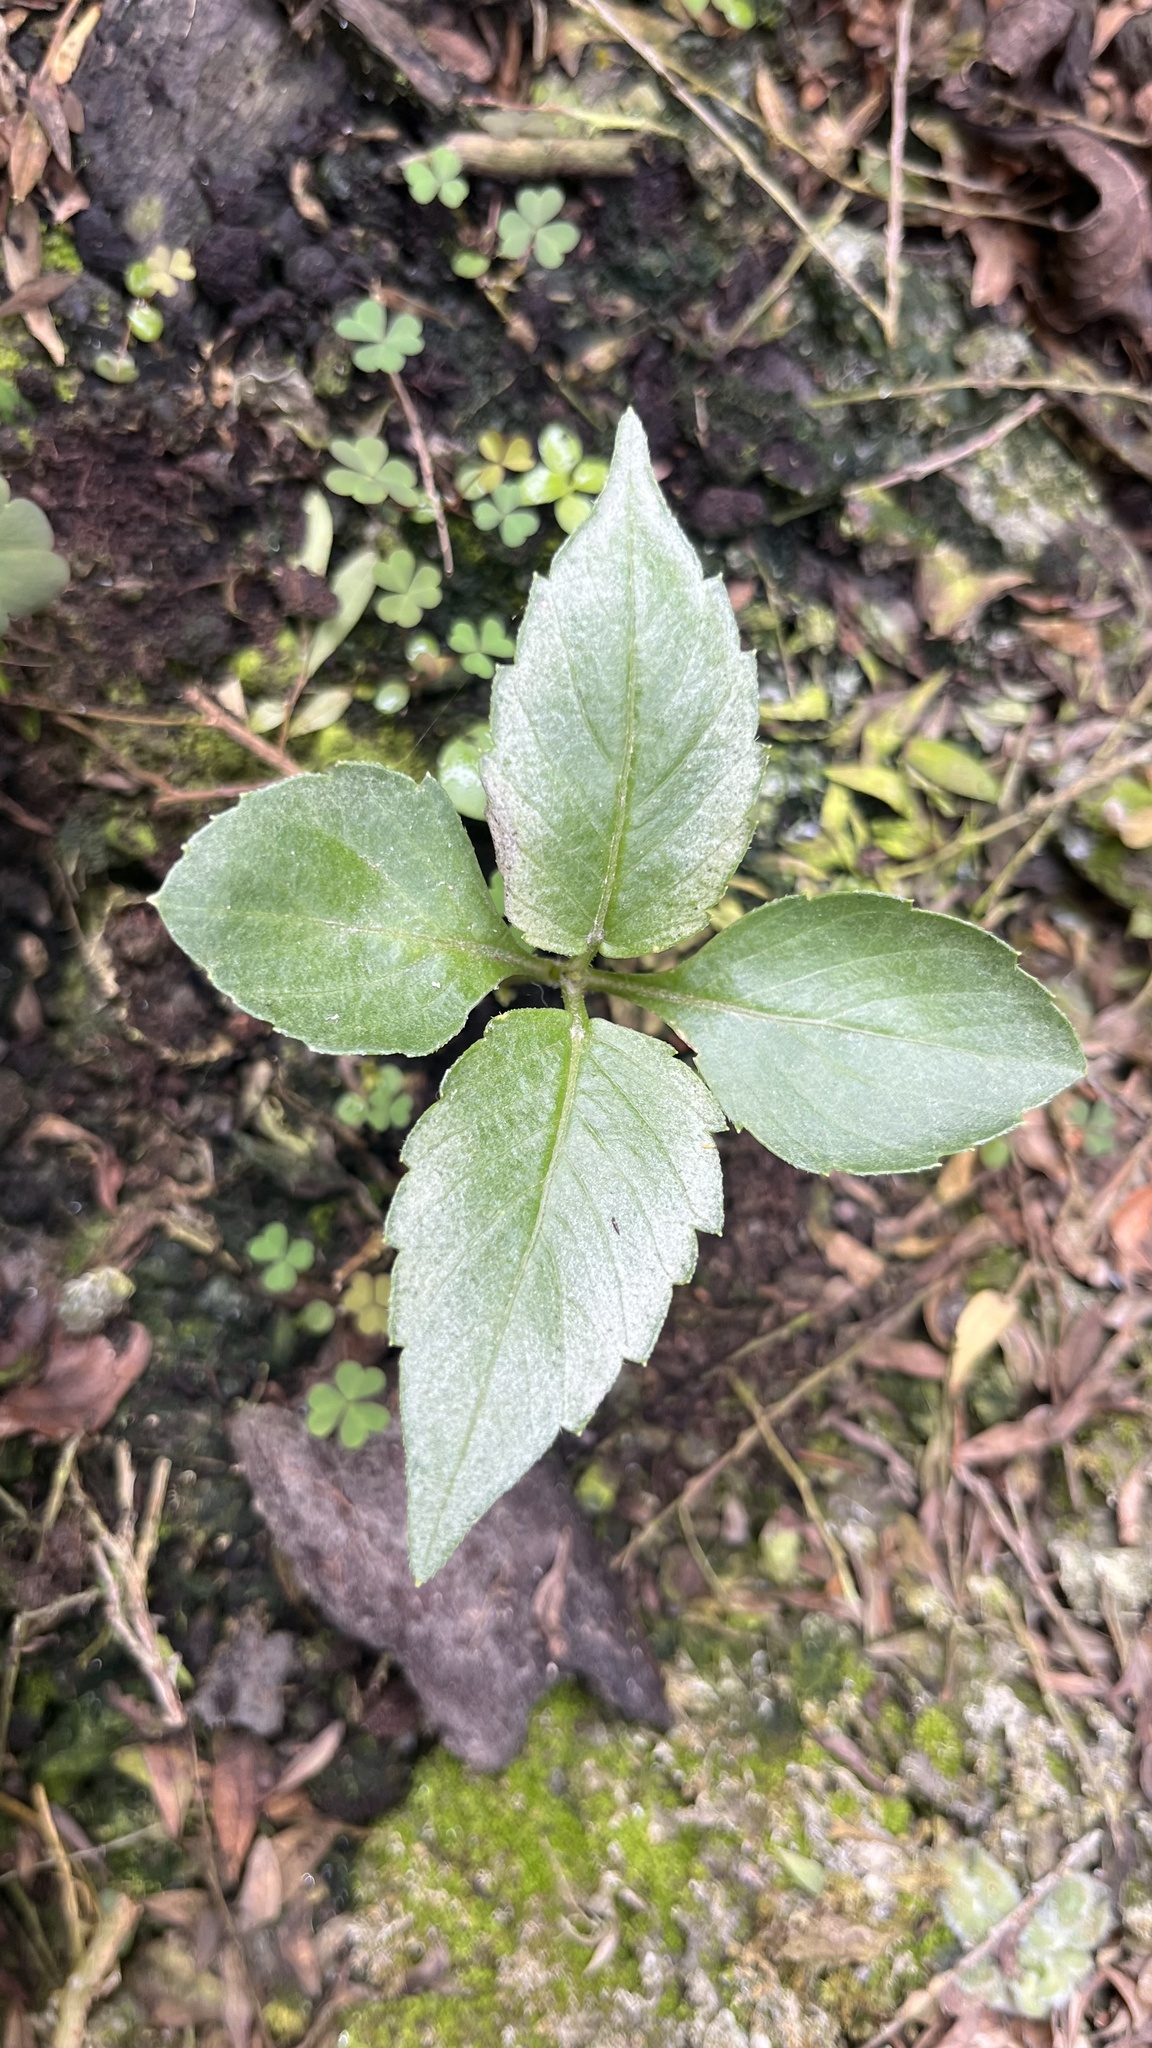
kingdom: Plantae
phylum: Tracheophyta
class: Magnoliopsida
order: Asterales
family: Asteraceae
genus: Bidens
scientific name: Bidens alba
